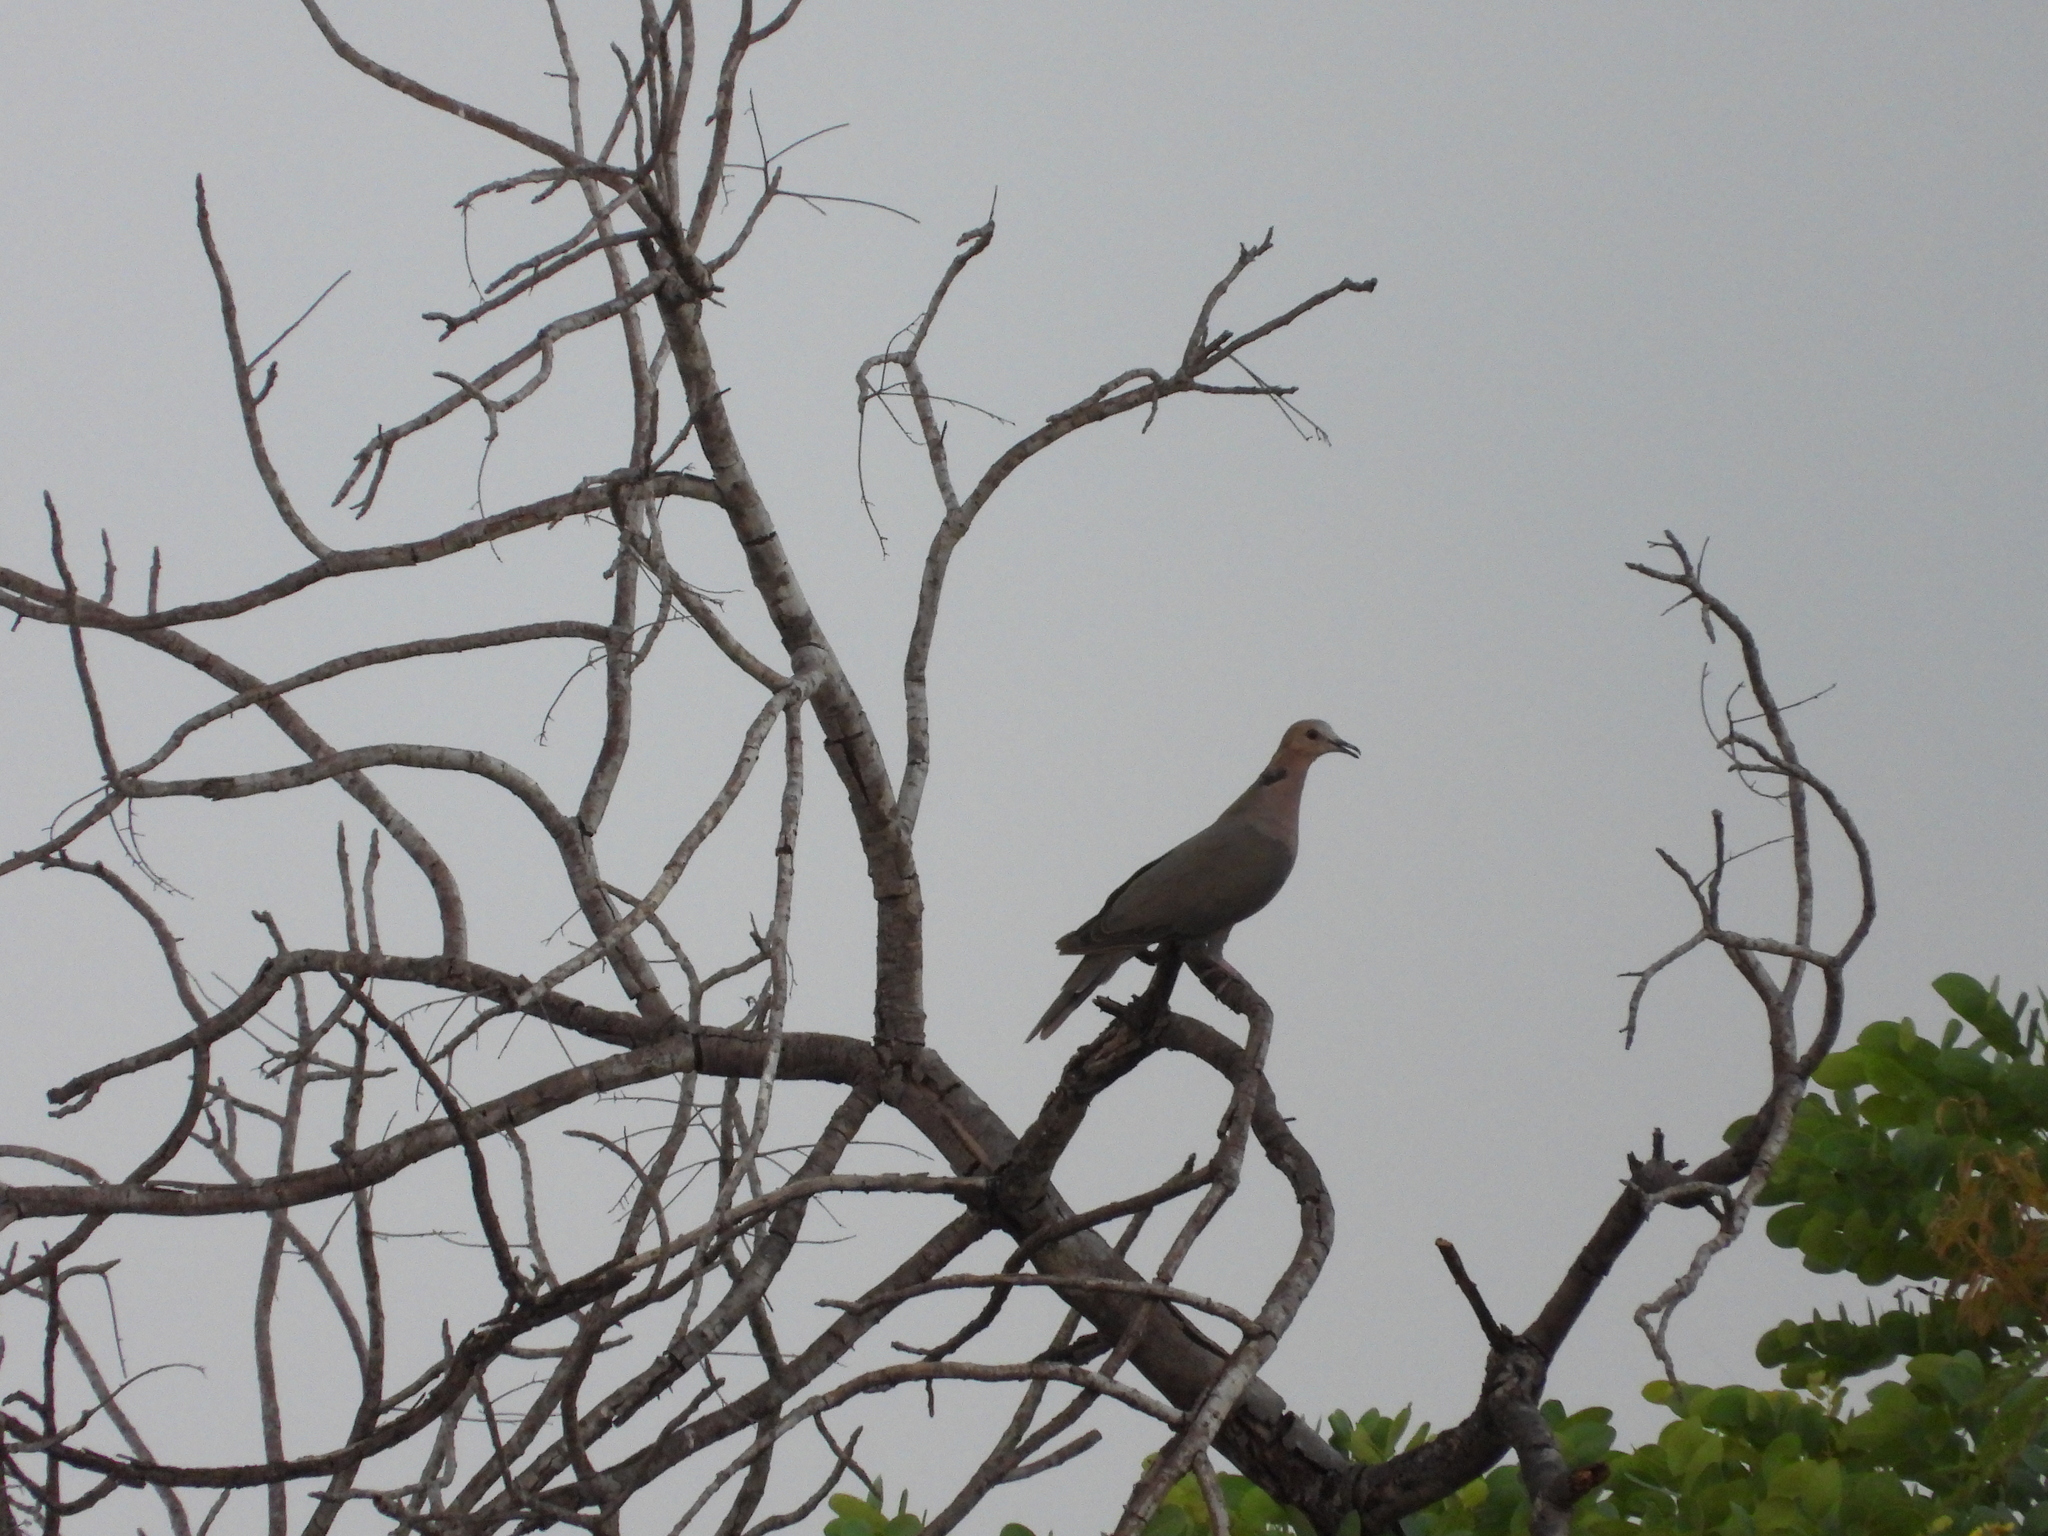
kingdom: Animalia
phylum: Chordata
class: Aves
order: Columbiformes
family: Columbidae
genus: Streptopelia
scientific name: Streptopelia semitorquata
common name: Red-eyed dove
